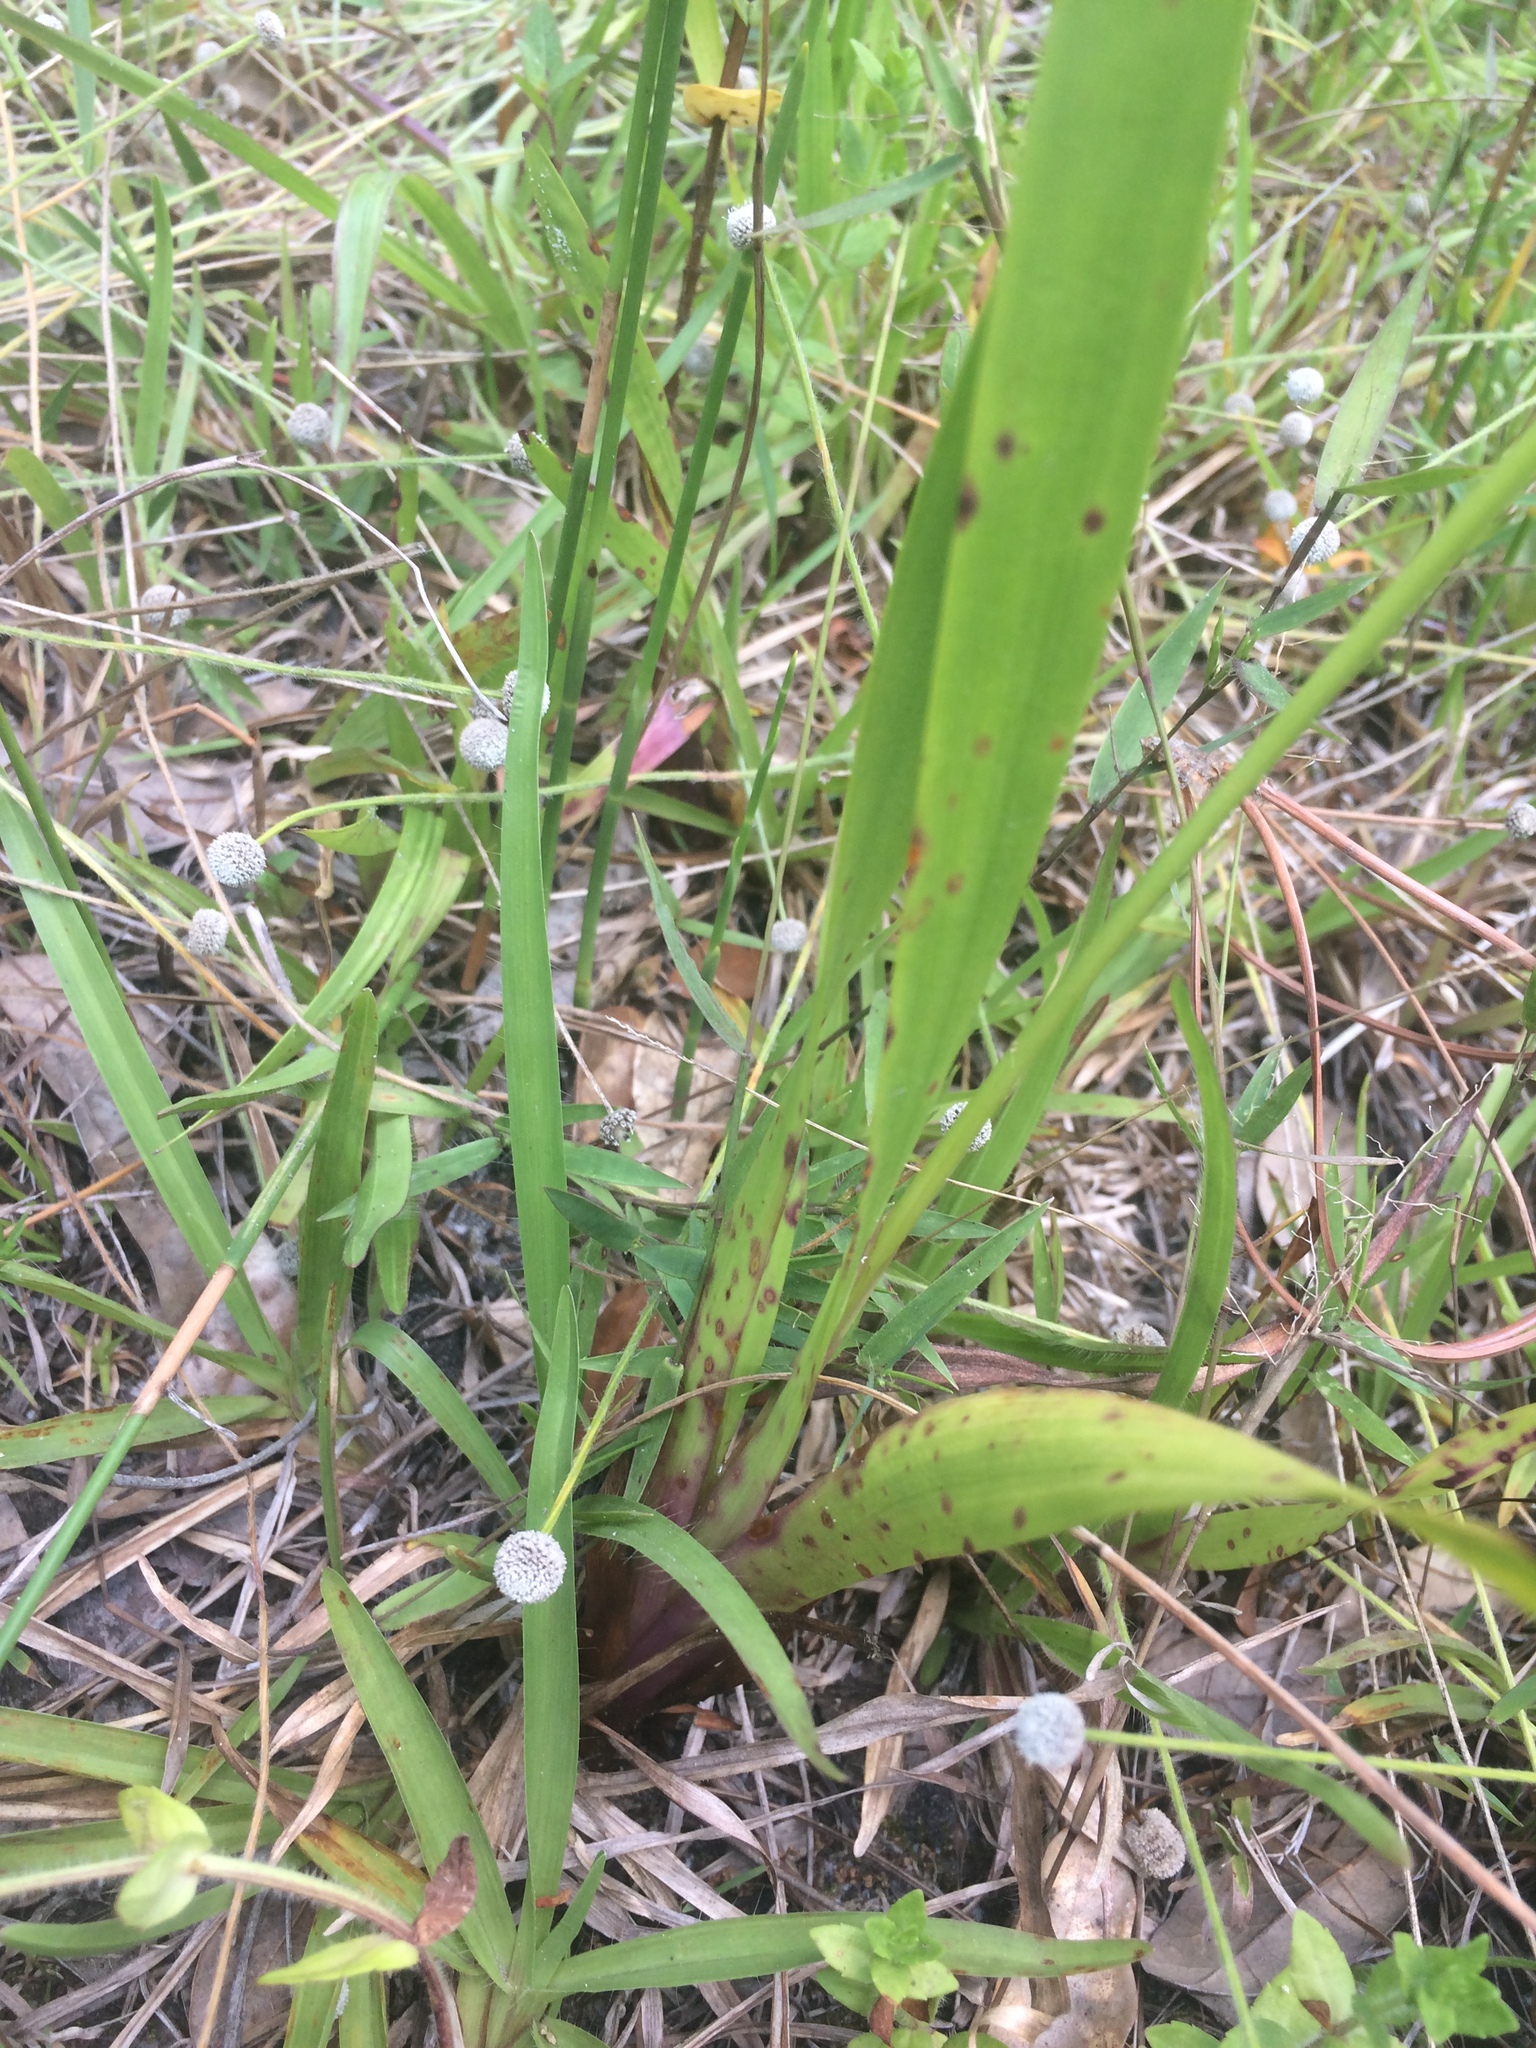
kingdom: Plantae
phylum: Tracheophyta
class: Liliopsida
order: Poales
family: Xyridaceae
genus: Xyris
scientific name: Xyris platylepis
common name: Tall yelloweyed grass
